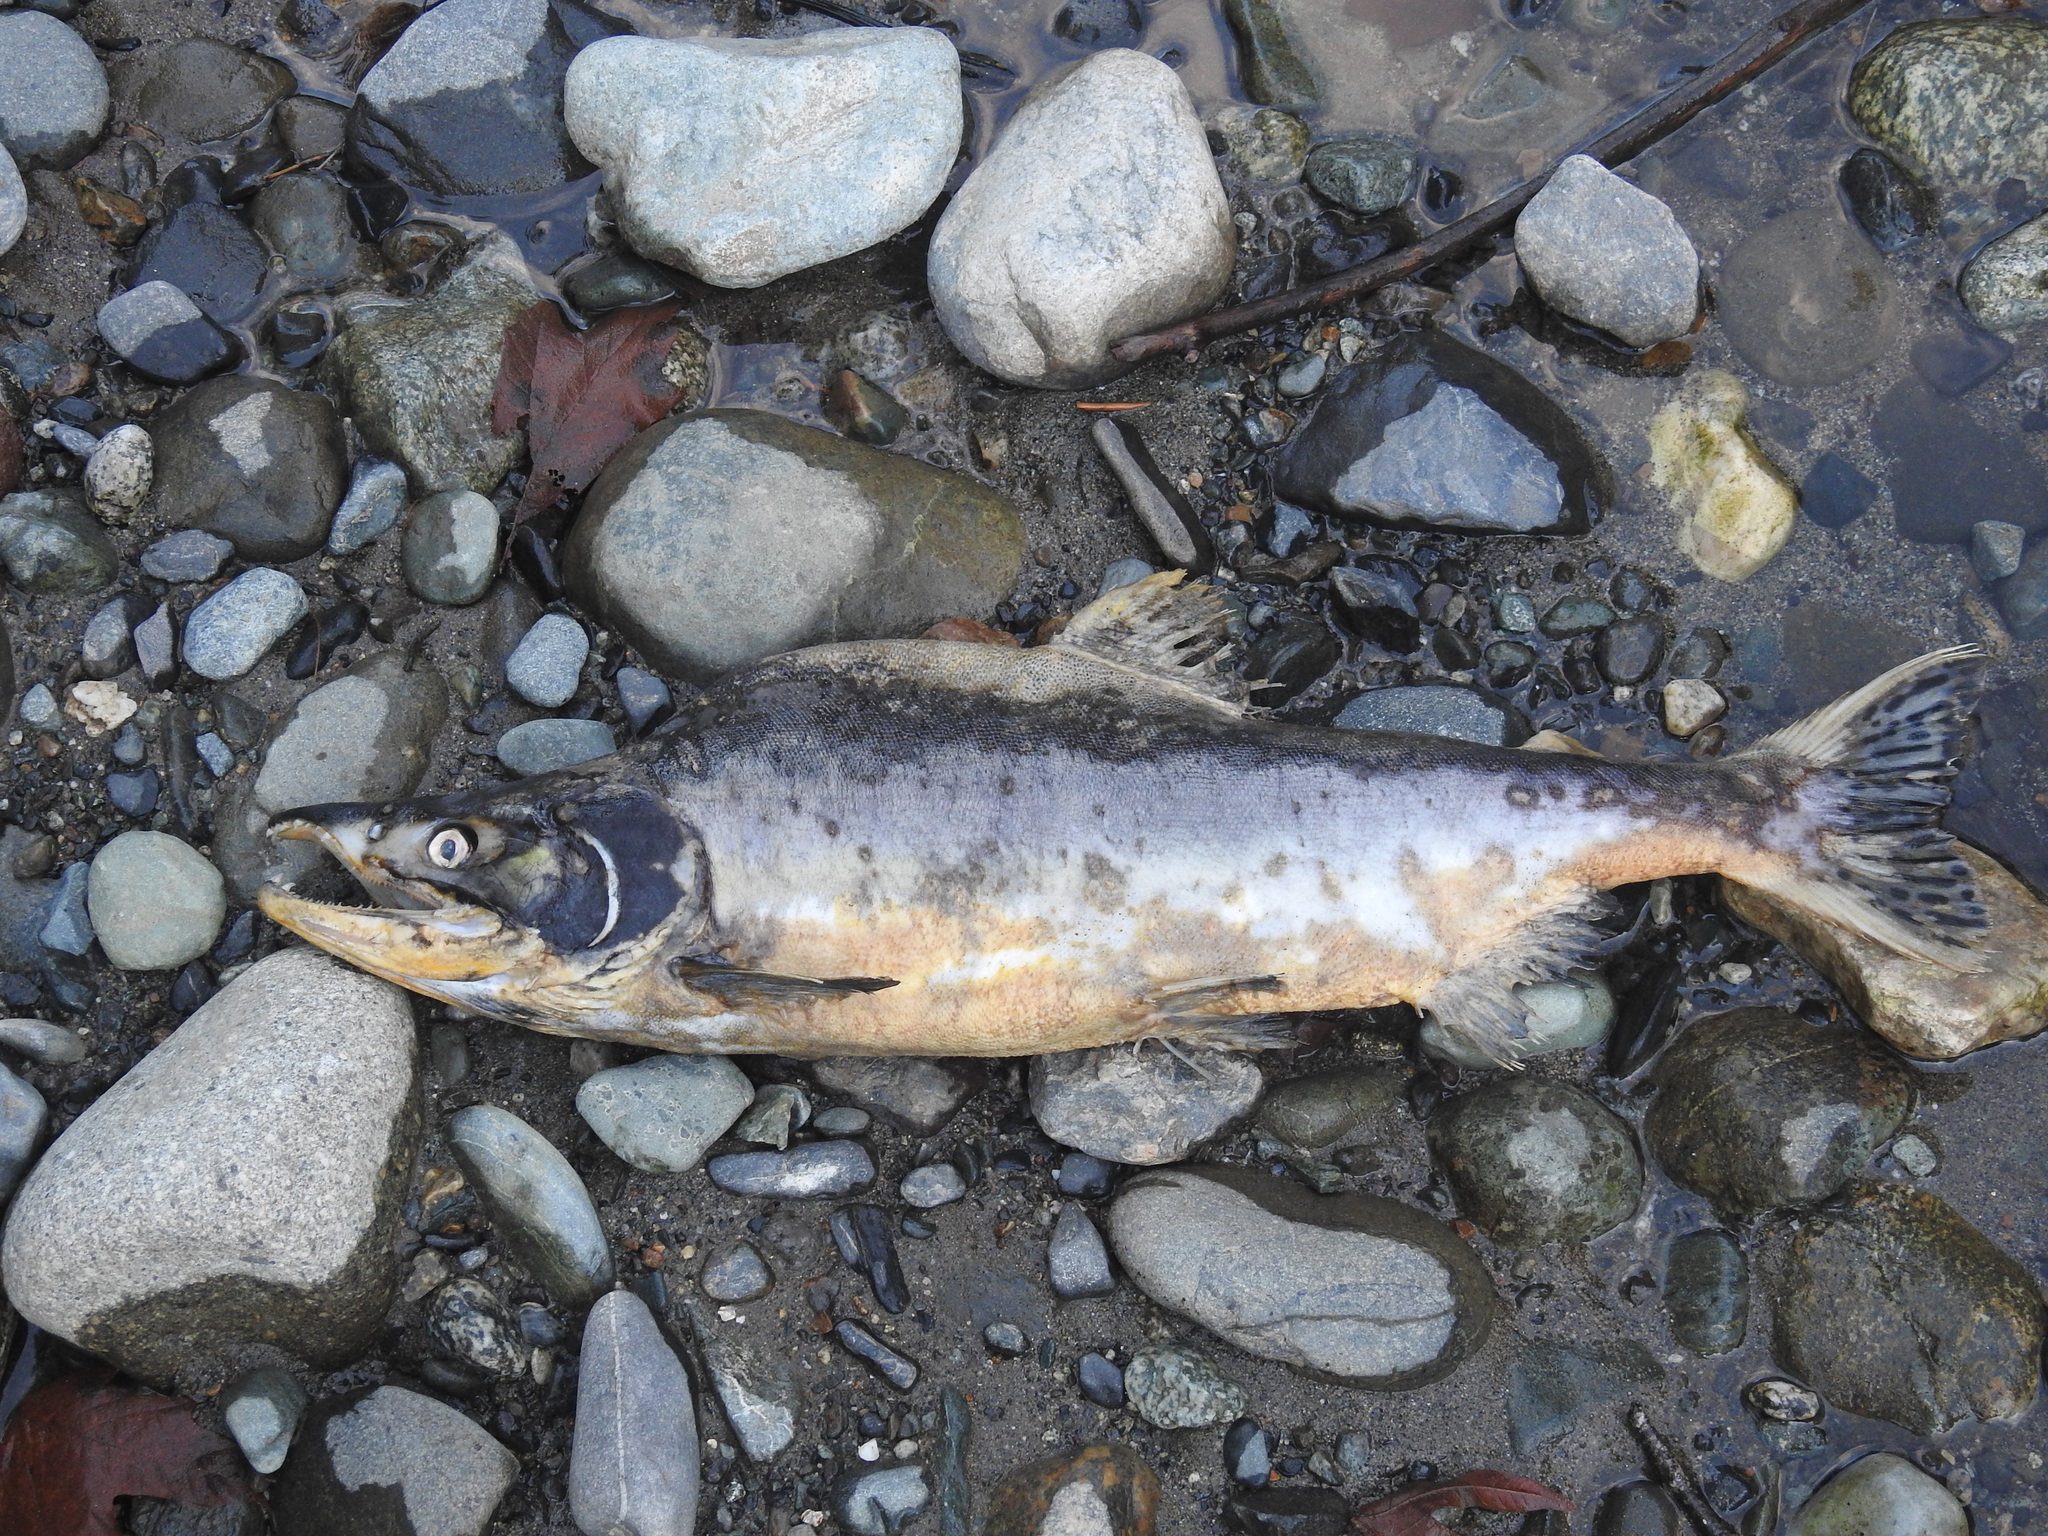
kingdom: Animalia
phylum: Chordata
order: Salmoniformes
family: Salmonidae
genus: Oncorhynchus
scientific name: Oncorhynchus gorbuscha
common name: Humpback salmon
